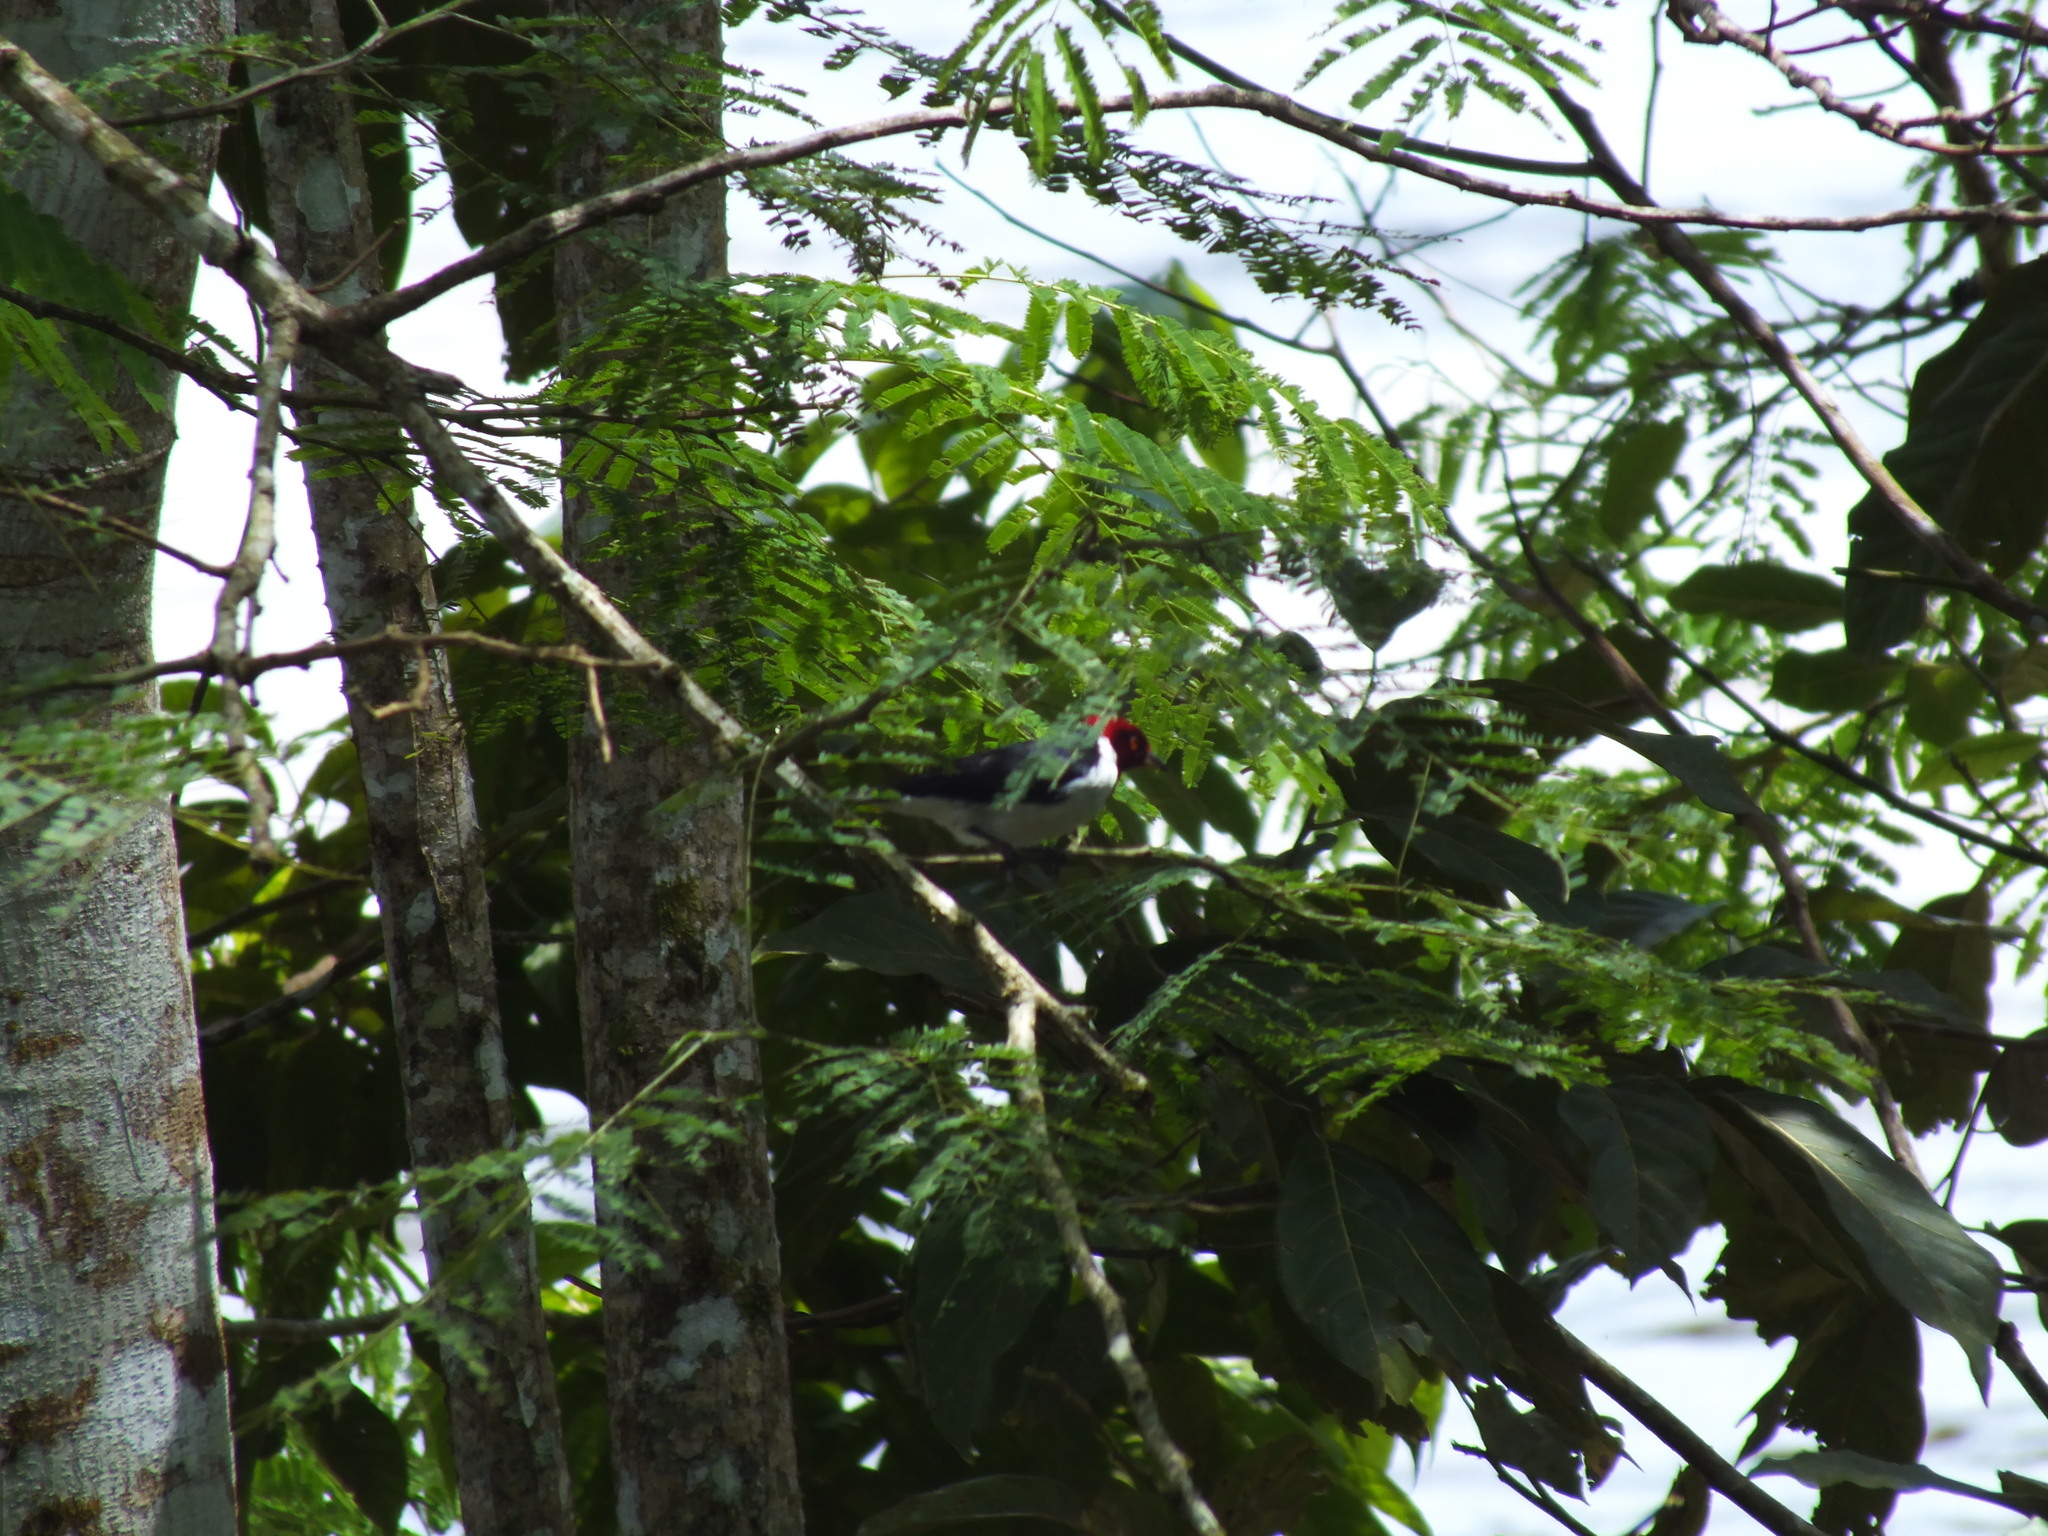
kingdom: Animalia
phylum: Chordata
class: Aves
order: Passeriformes
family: Thraupidae
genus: Paroaria
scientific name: Paroaria gularis
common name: Red-capped cardinal
